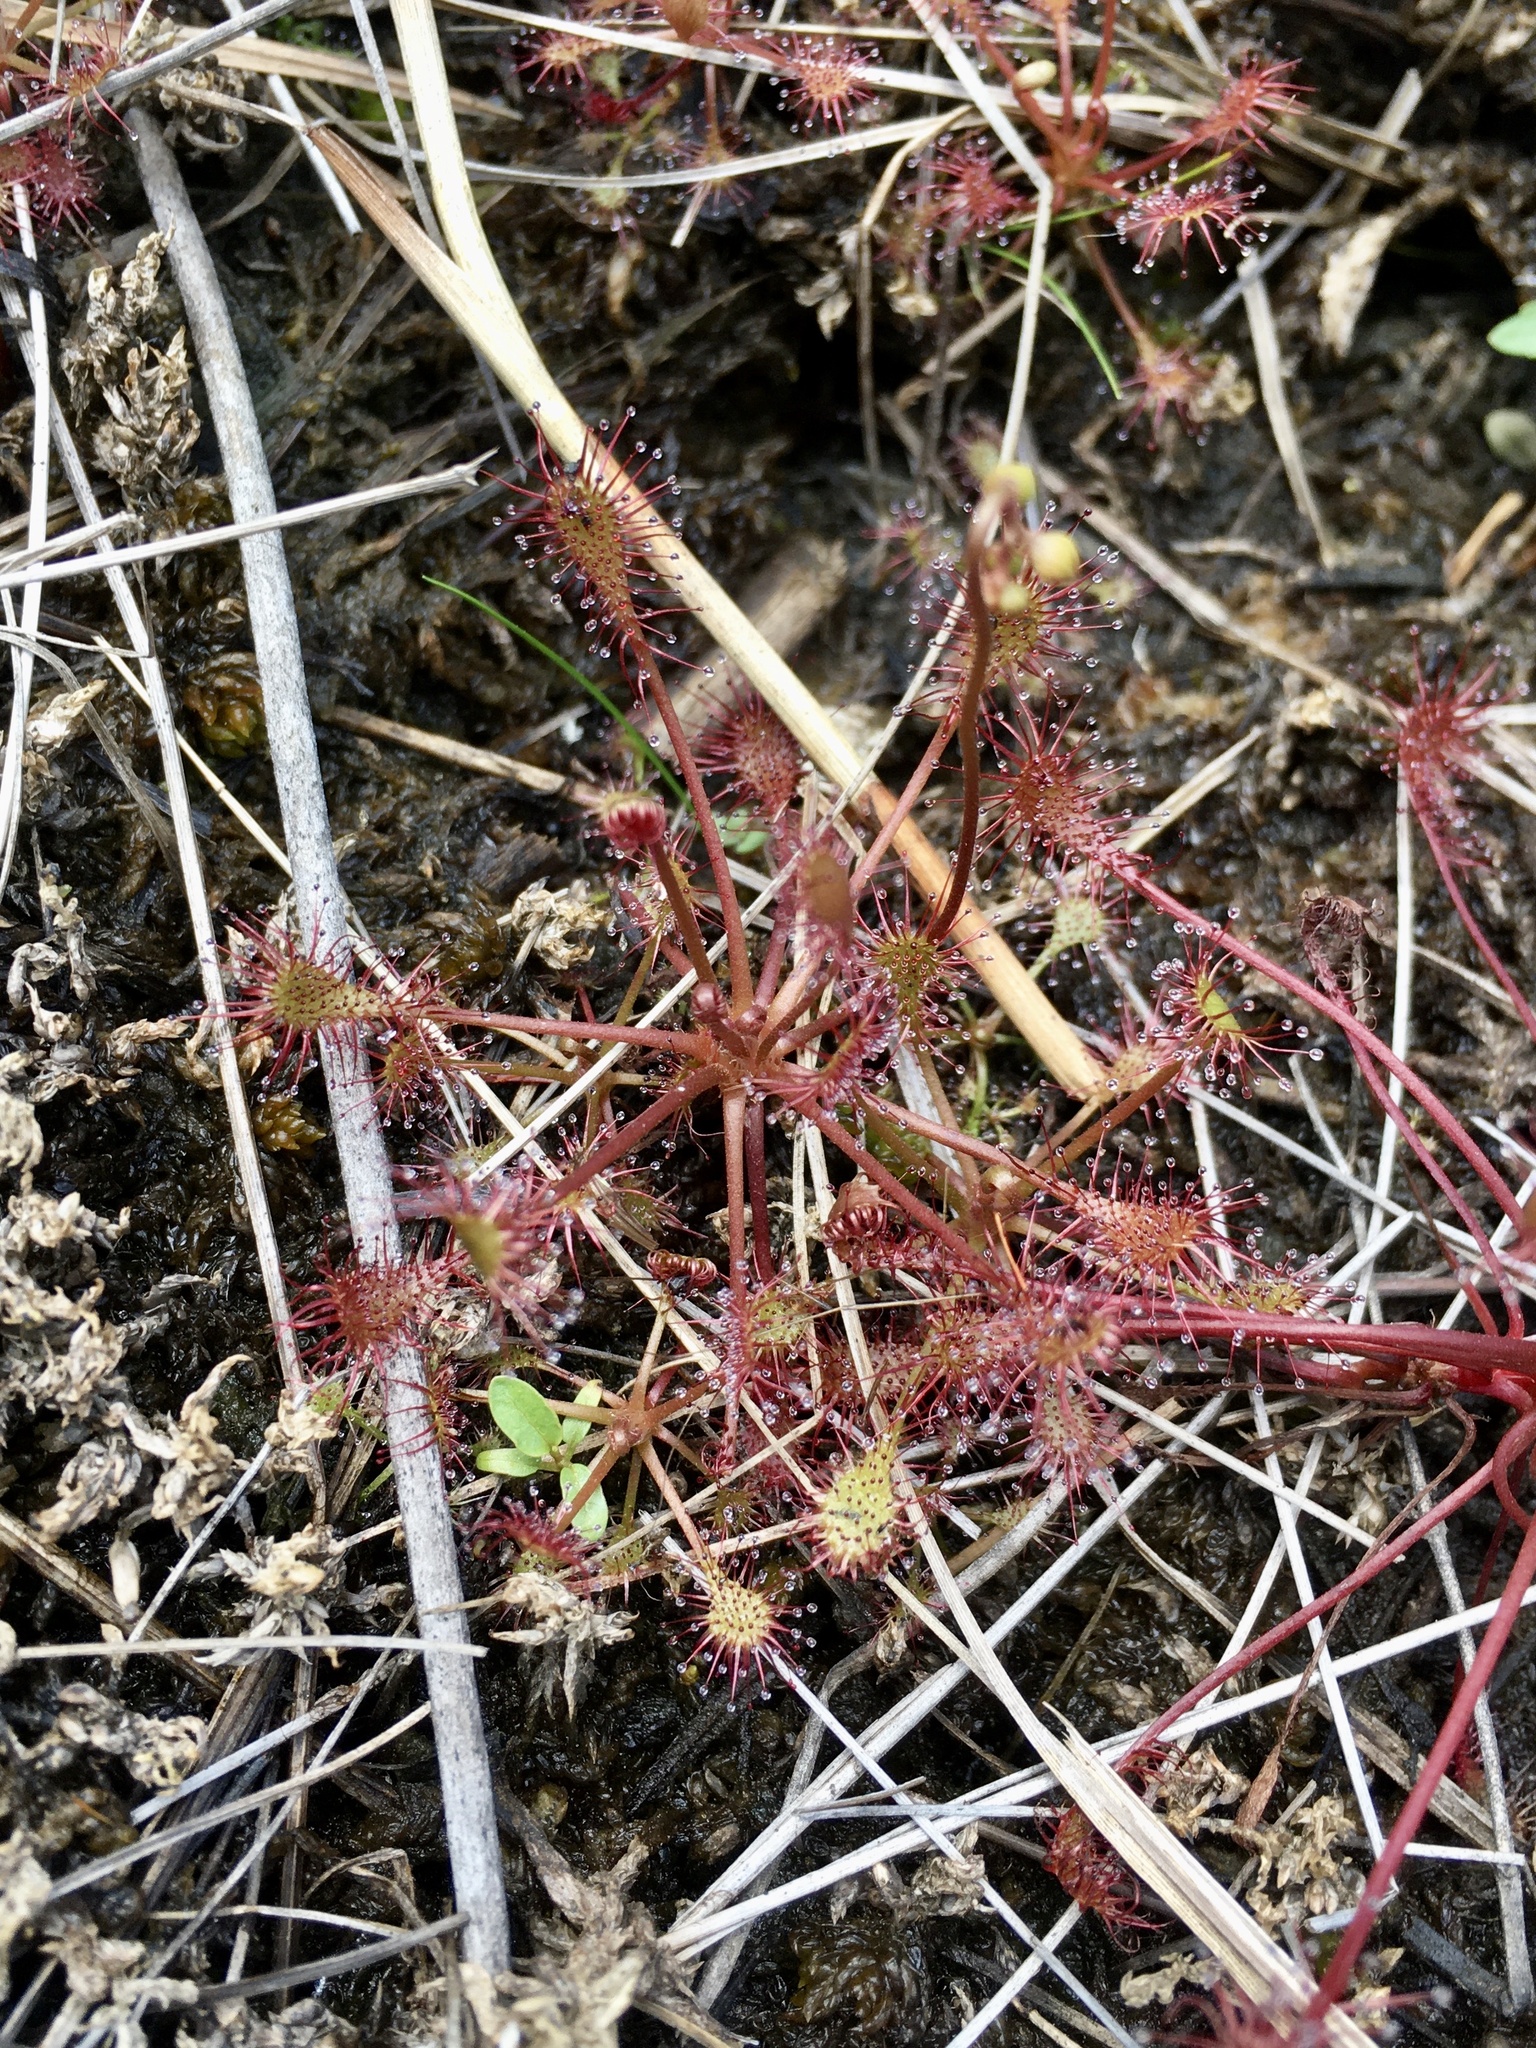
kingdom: Plantae
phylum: Tracheophyta
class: Magnoliopsida
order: Caryophyllales
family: Droseraceae
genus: Drosera
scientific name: Drosera intermedia
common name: Oblong-leaved sundew
